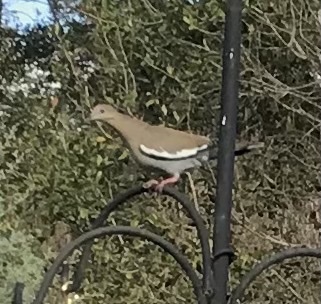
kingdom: Animalia
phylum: Chordata
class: Aves
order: Columbiformes
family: Columbidae
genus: Zenaida
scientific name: Zenaida asiatica
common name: White-winged dove
